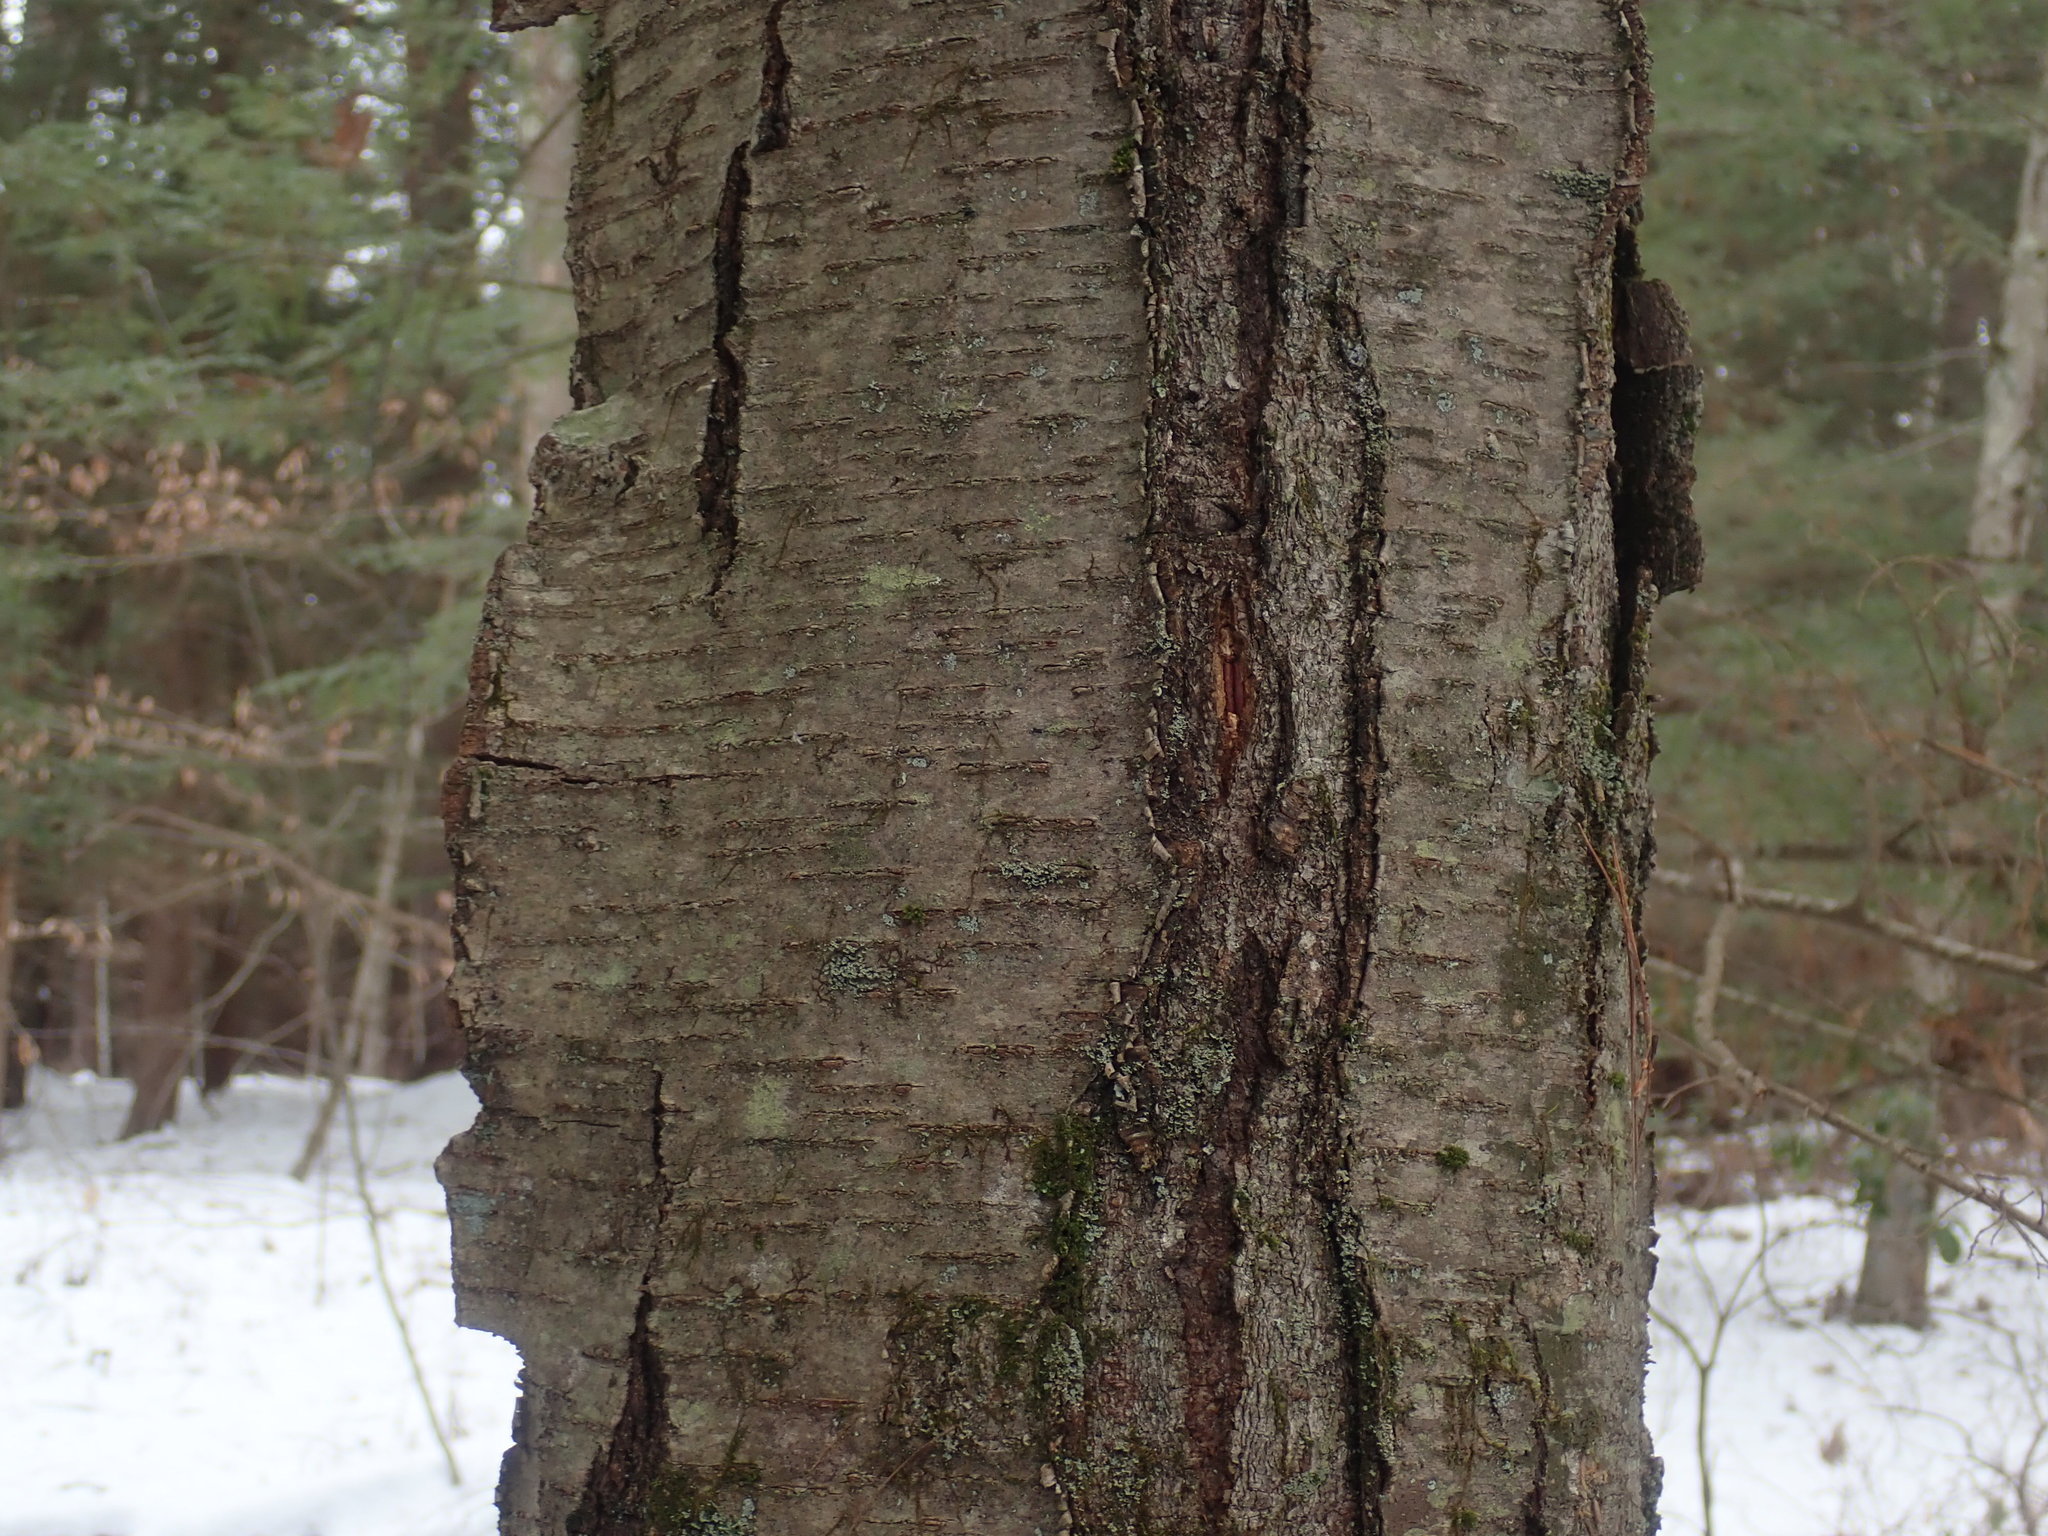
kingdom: Plantae
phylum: Tracheophyta
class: Magnoliopsida
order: Fagales
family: Betulaceae
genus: Betula
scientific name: Betula lenta
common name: Black birch
